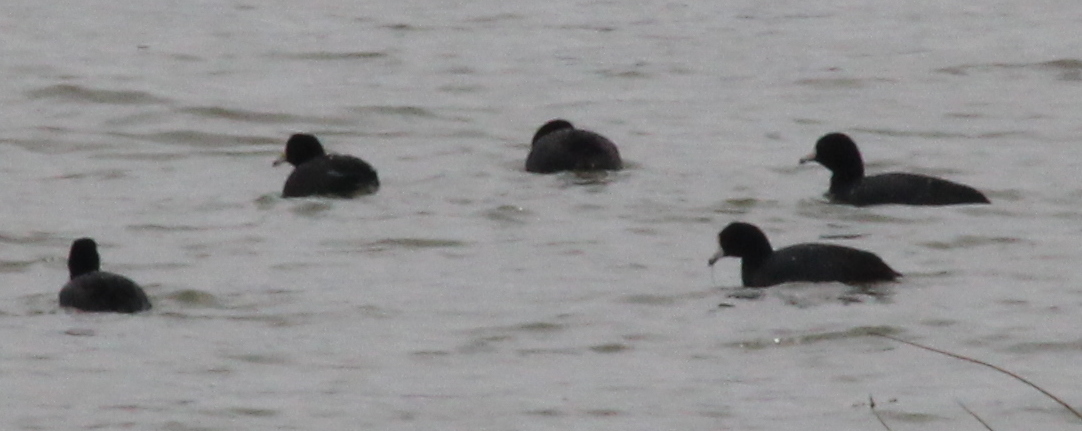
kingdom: Animalia
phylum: Chordata
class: Aves
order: Gruiformes
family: Rallidae
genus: Fulica
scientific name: Fulica americana
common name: American coot
